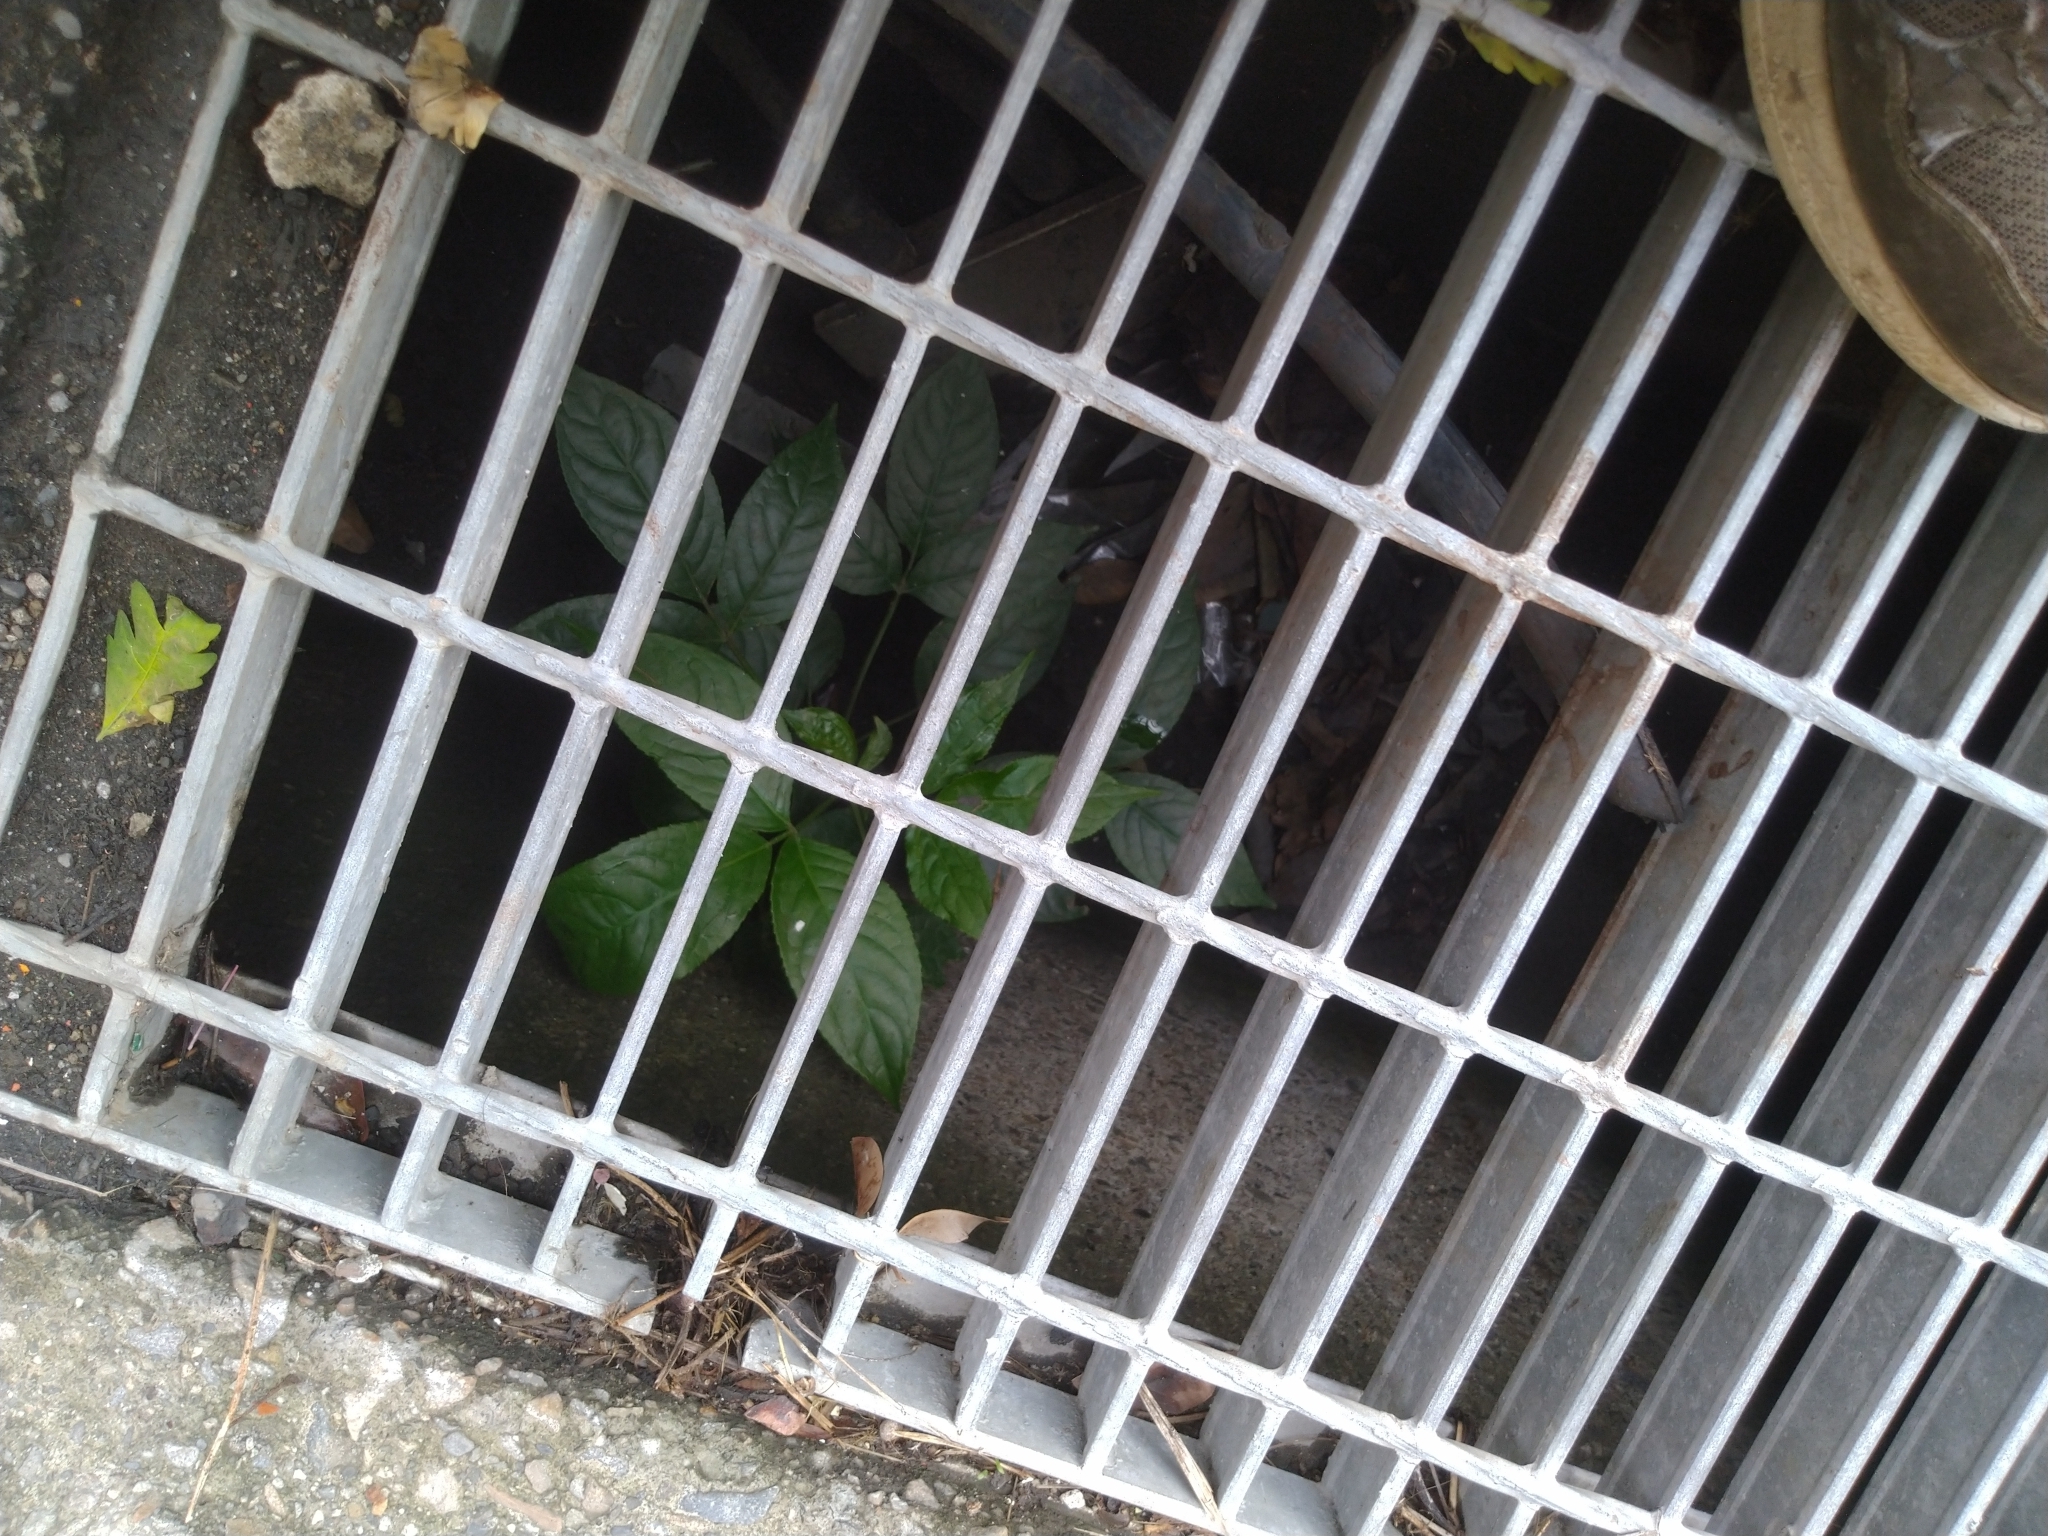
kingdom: Plantae
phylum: Tracheophyta
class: Magnoliopsida
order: Malpighiales
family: Phyllanthaceae
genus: Bischofia
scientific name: Bischofia javanica
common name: Javanese bishopwood
